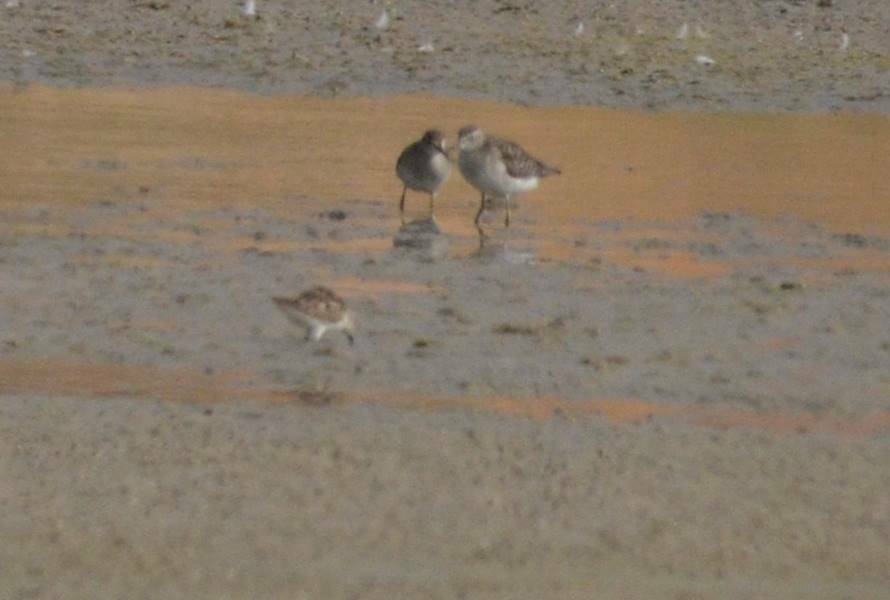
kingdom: Animalia
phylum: Chordata
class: Aves
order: Charadriiformes
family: Scolopacidae
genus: Tringa
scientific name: Tringa glareola
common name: Wood sandpiper
